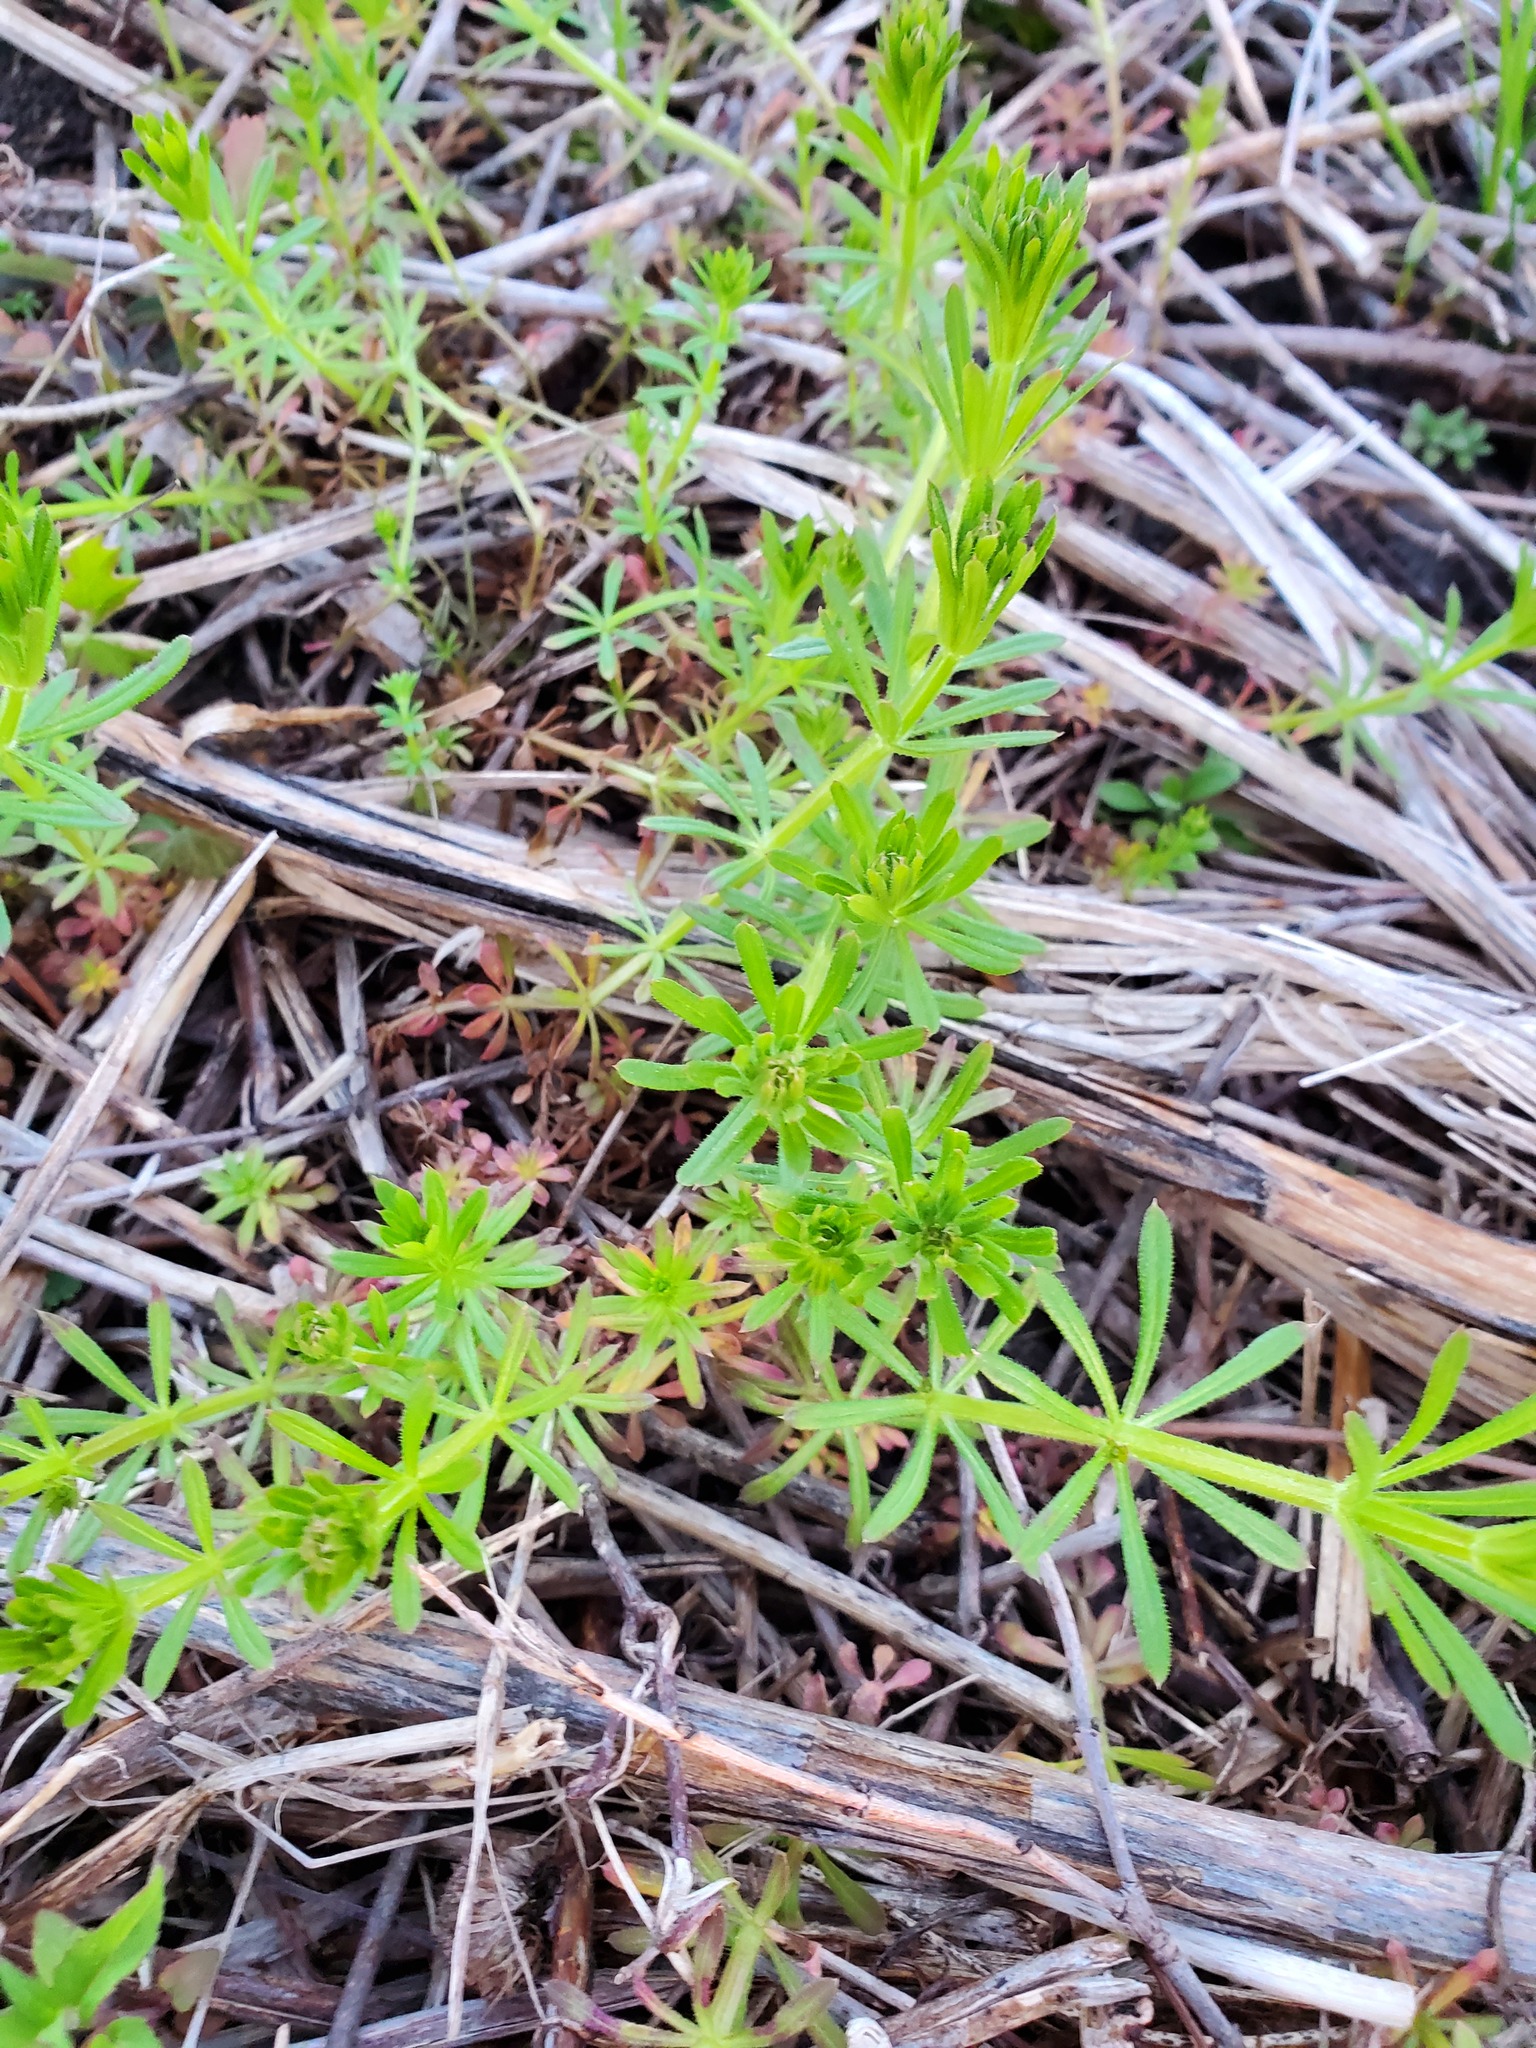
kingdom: Plantae
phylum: Tracheophyta
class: Magnoliopsida
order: Gentianales
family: Rubiaceae
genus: Galium
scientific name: Galium aparine
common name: Cleavers
